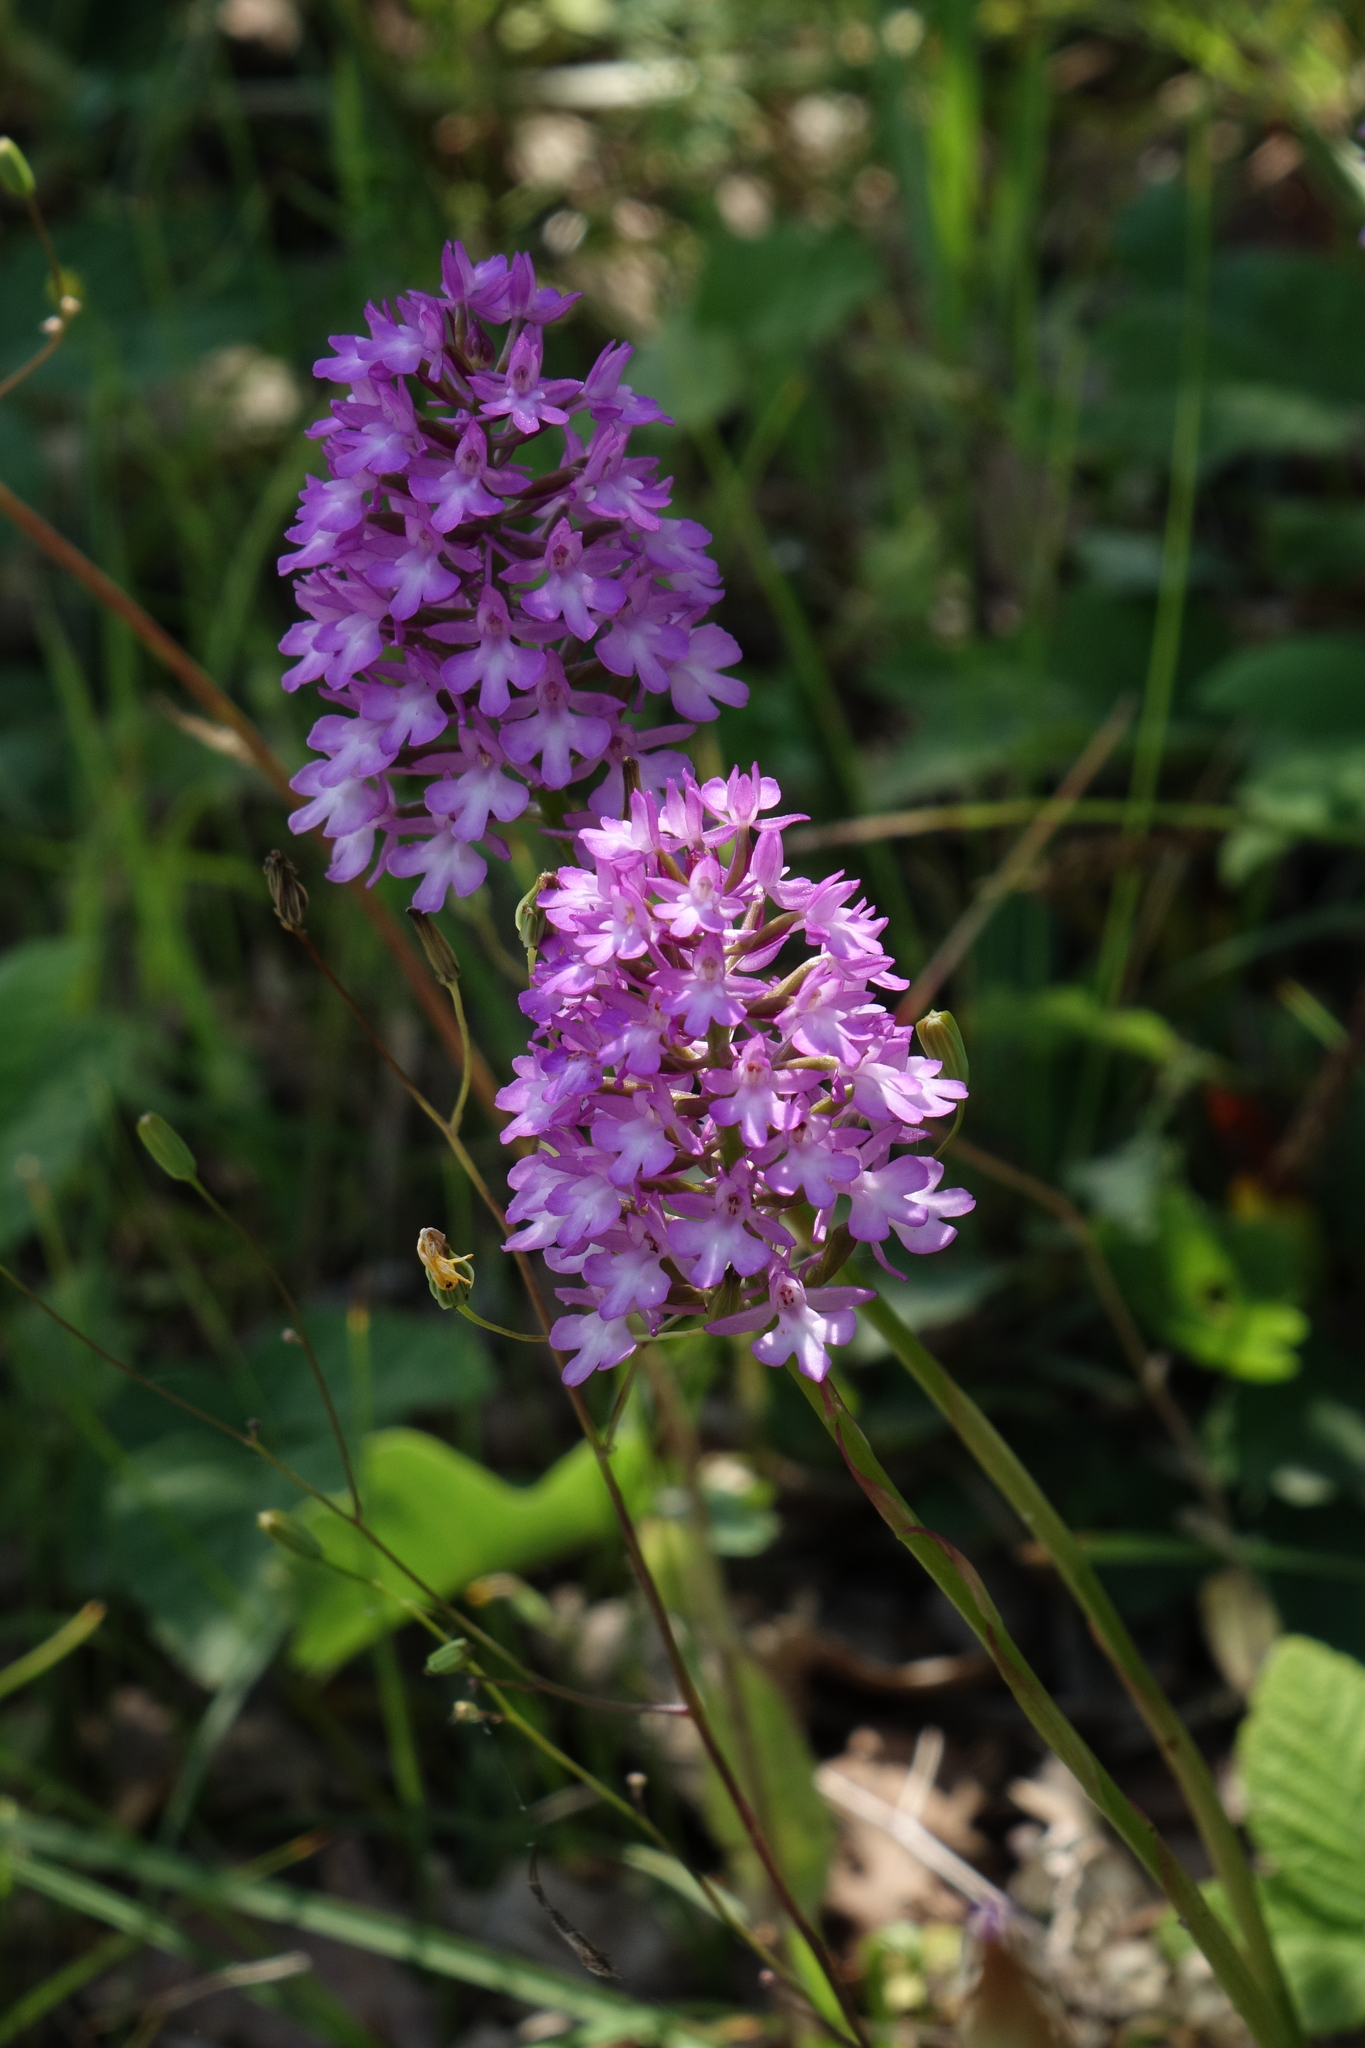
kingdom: Plantae
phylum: Tracheophyta
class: Liliopsida
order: Asparagales
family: Orchidaceae
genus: Anacamptis
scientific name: Anacamptis pyramidalis
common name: Pyramidal orchid
